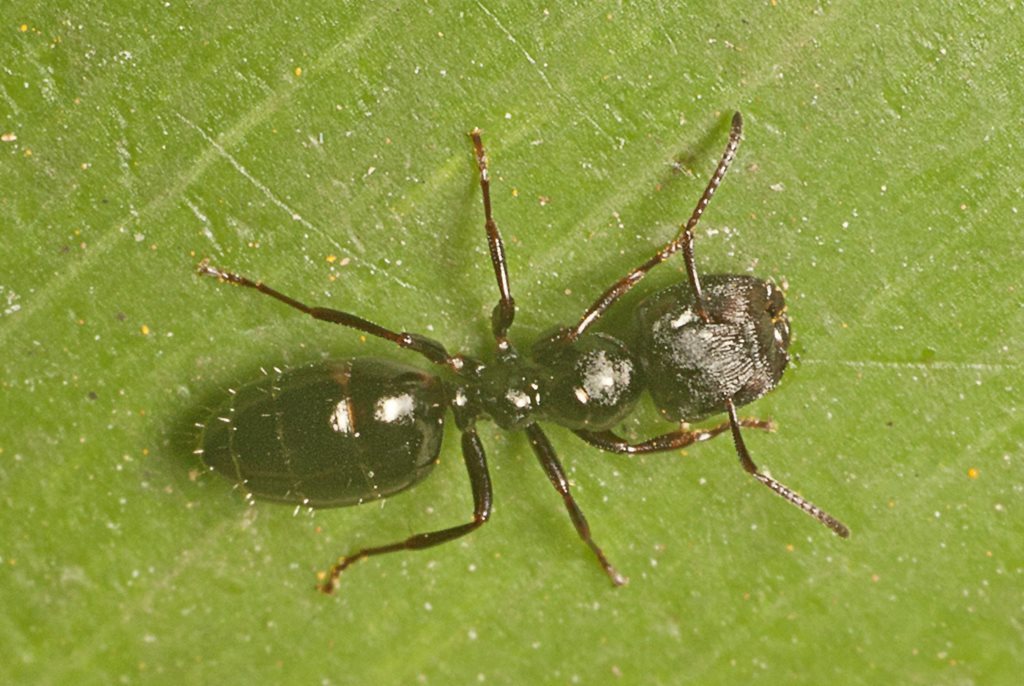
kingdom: Animalia
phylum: Arthropoda
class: Insecta
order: Hymenoptera
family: Formicidae
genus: Colobopsis
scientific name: Colobopsis gasseri
